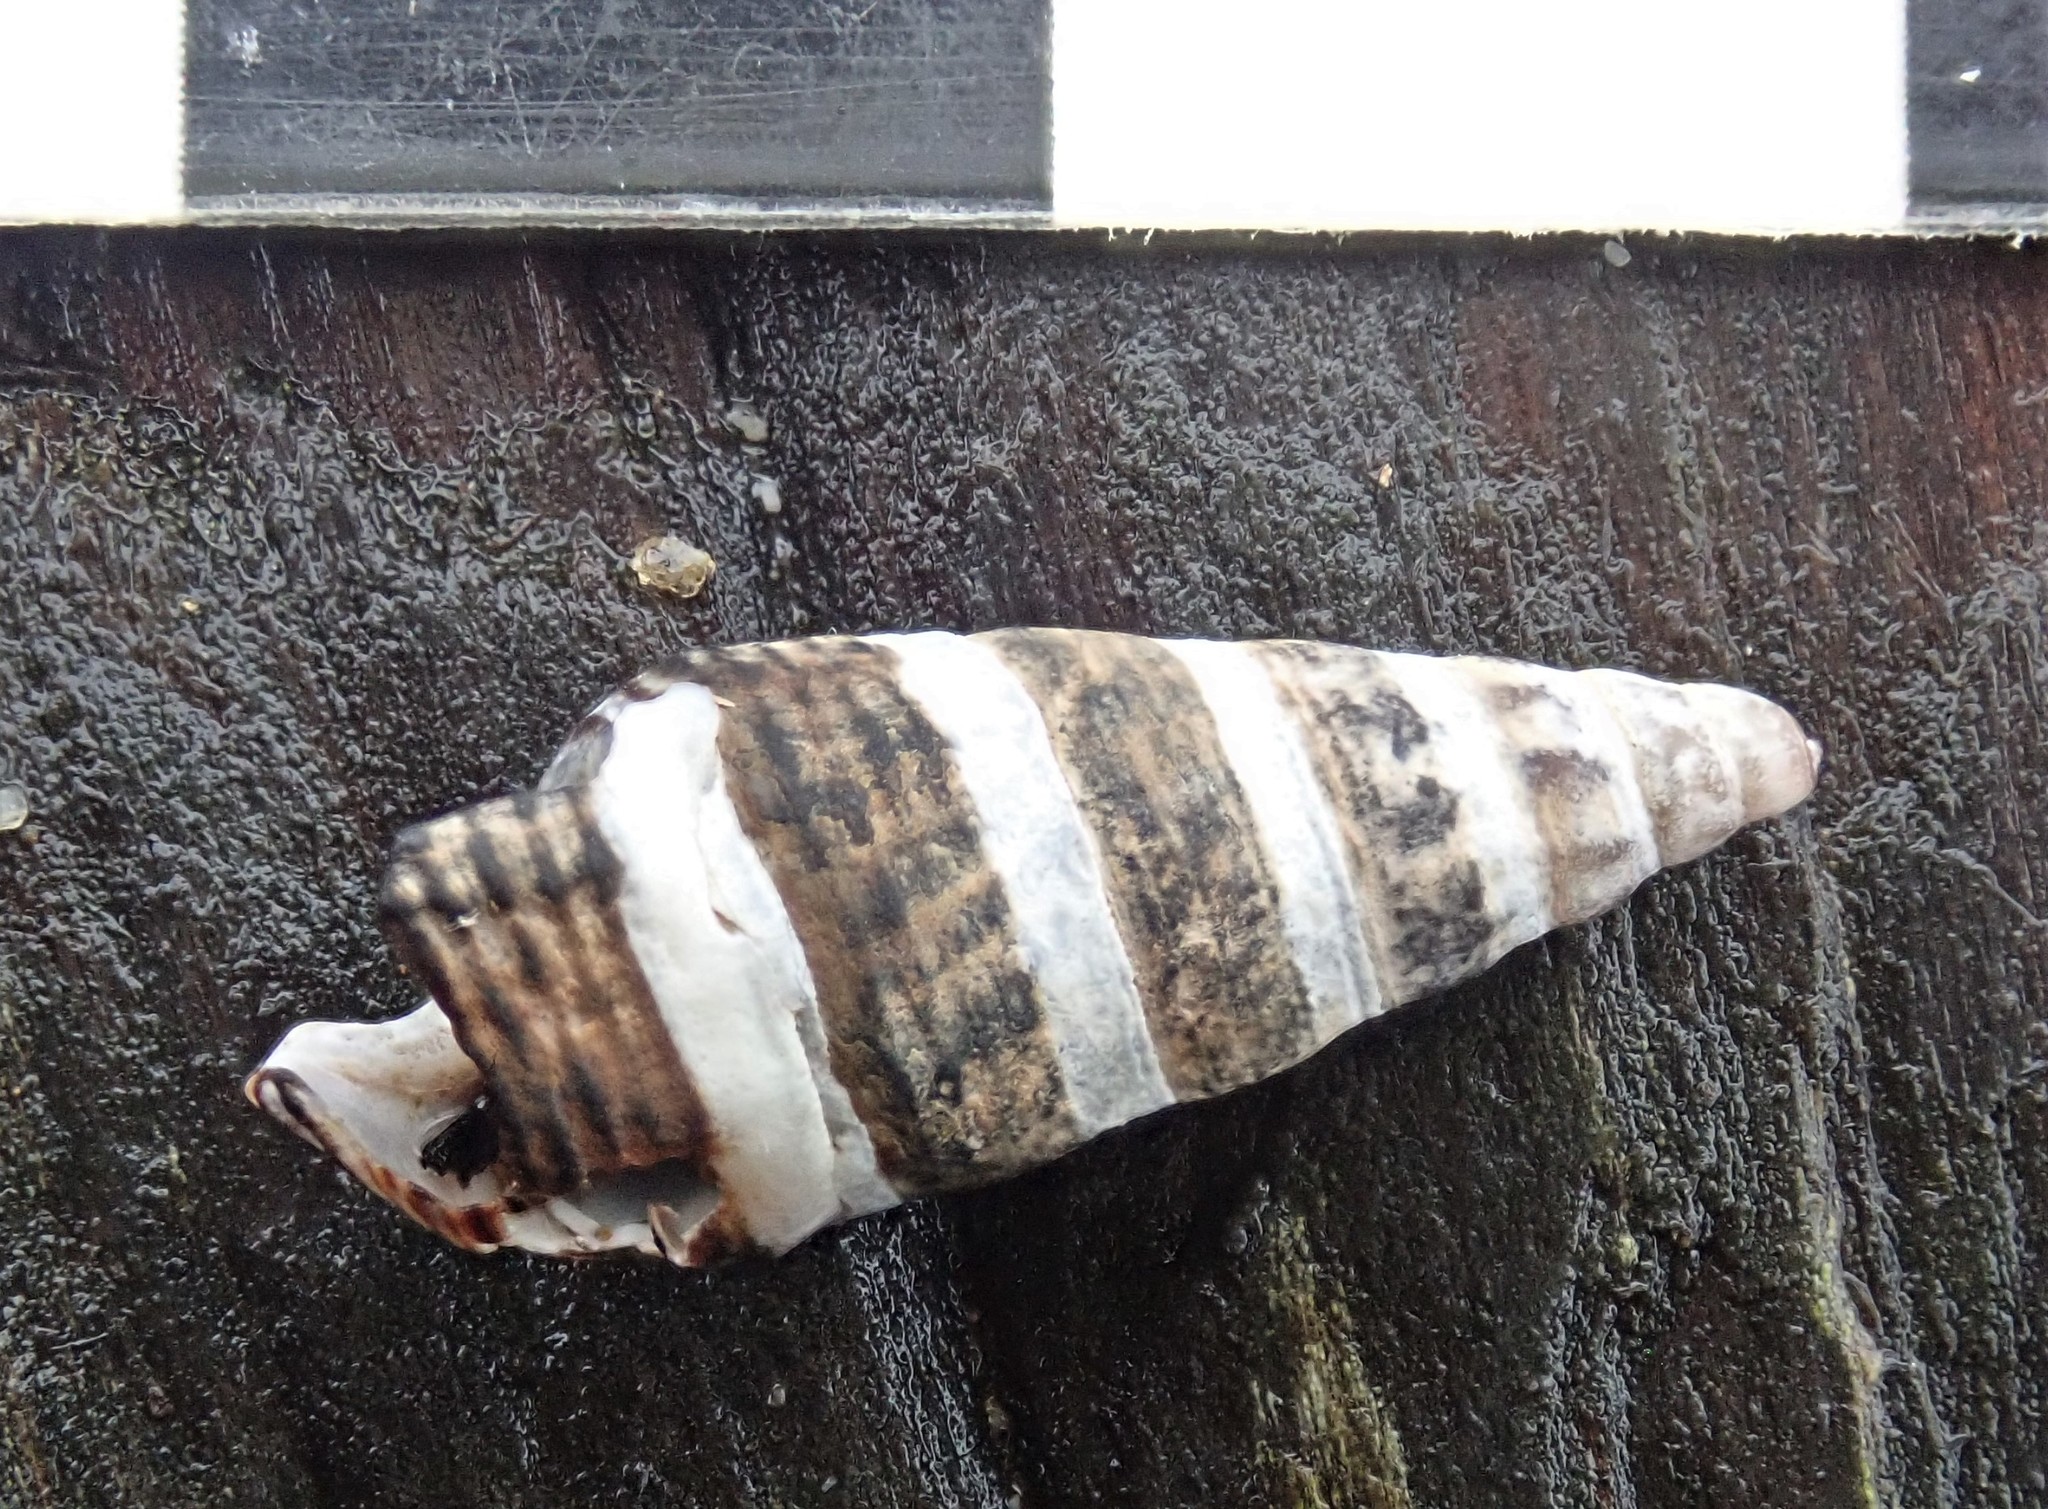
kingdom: Animalia
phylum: Mollusca
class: Gastropoda
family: Batillariidae
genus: Batillaria
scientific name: Batillaria attramentaria
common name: Japanese false cerith
